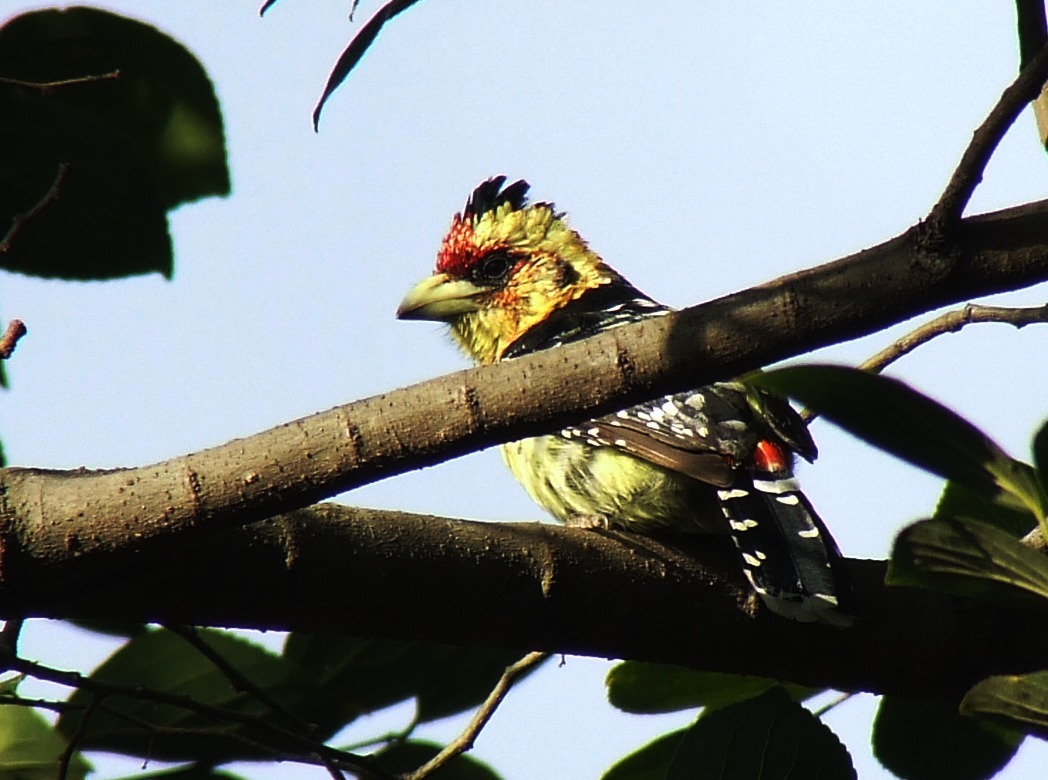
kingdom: Animalia
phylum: Chordata
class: Aves
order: Piciformes
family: Lybiidae
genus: Trachyphonus
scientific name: Trachyphonus vaillantii
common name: Crested barbet
